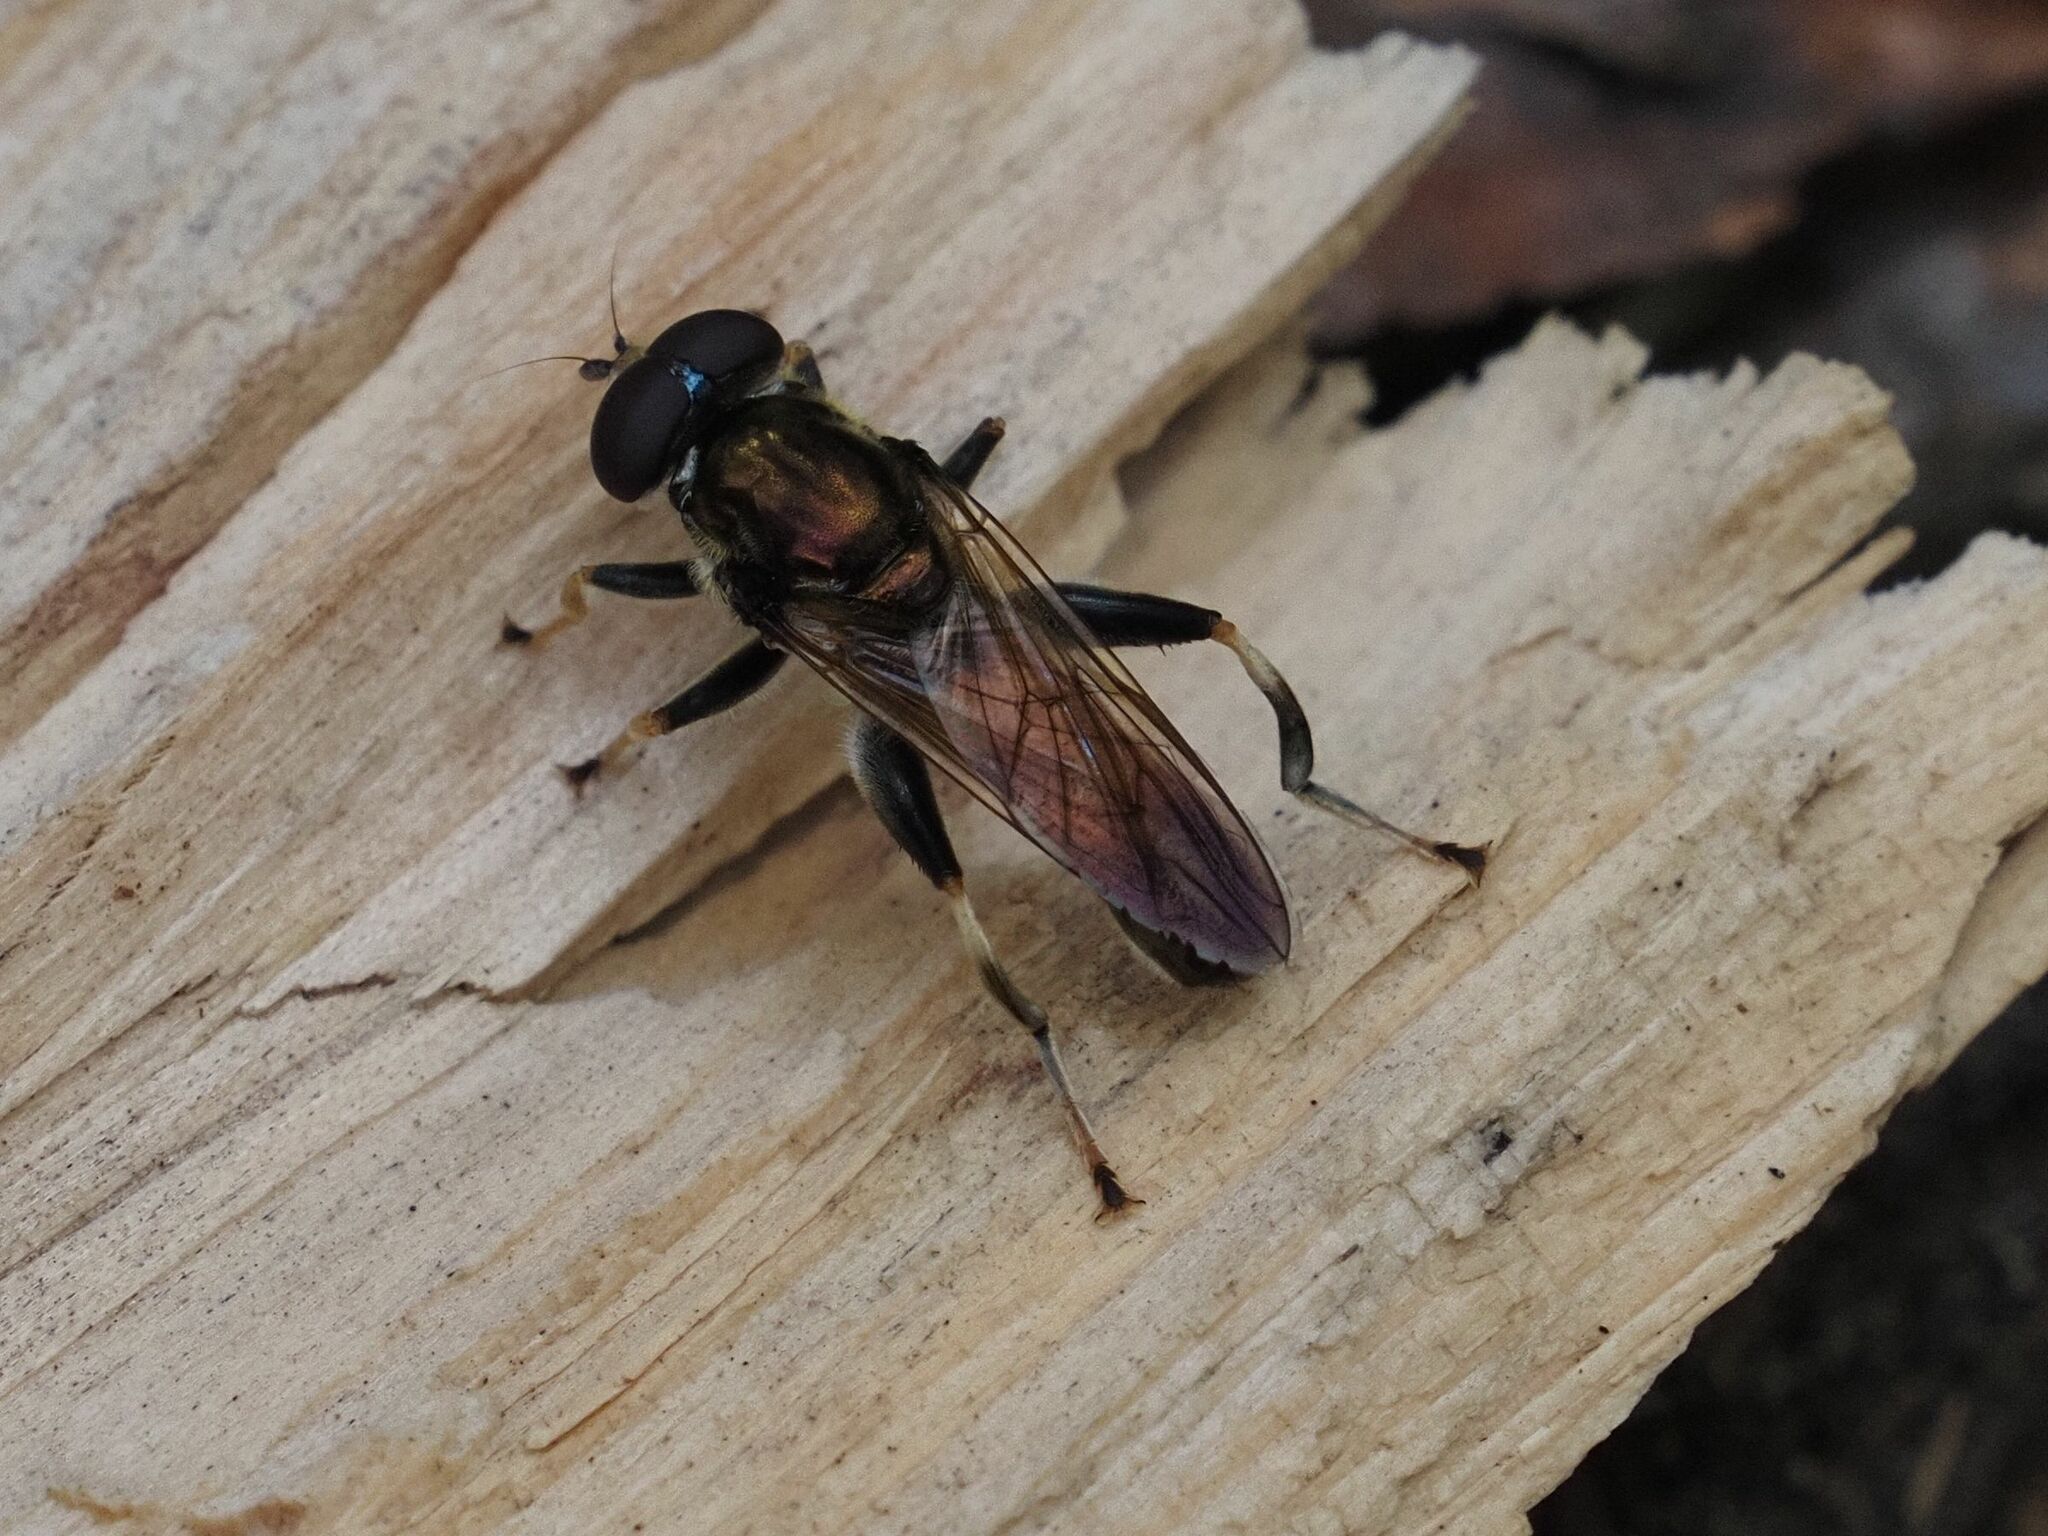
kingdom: Animalia
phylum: Arthropoda
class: Insecta
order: Diptera
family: Syrphidae
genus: Xylota
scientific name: Xylota segnis
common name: Brown-toed forest fly
